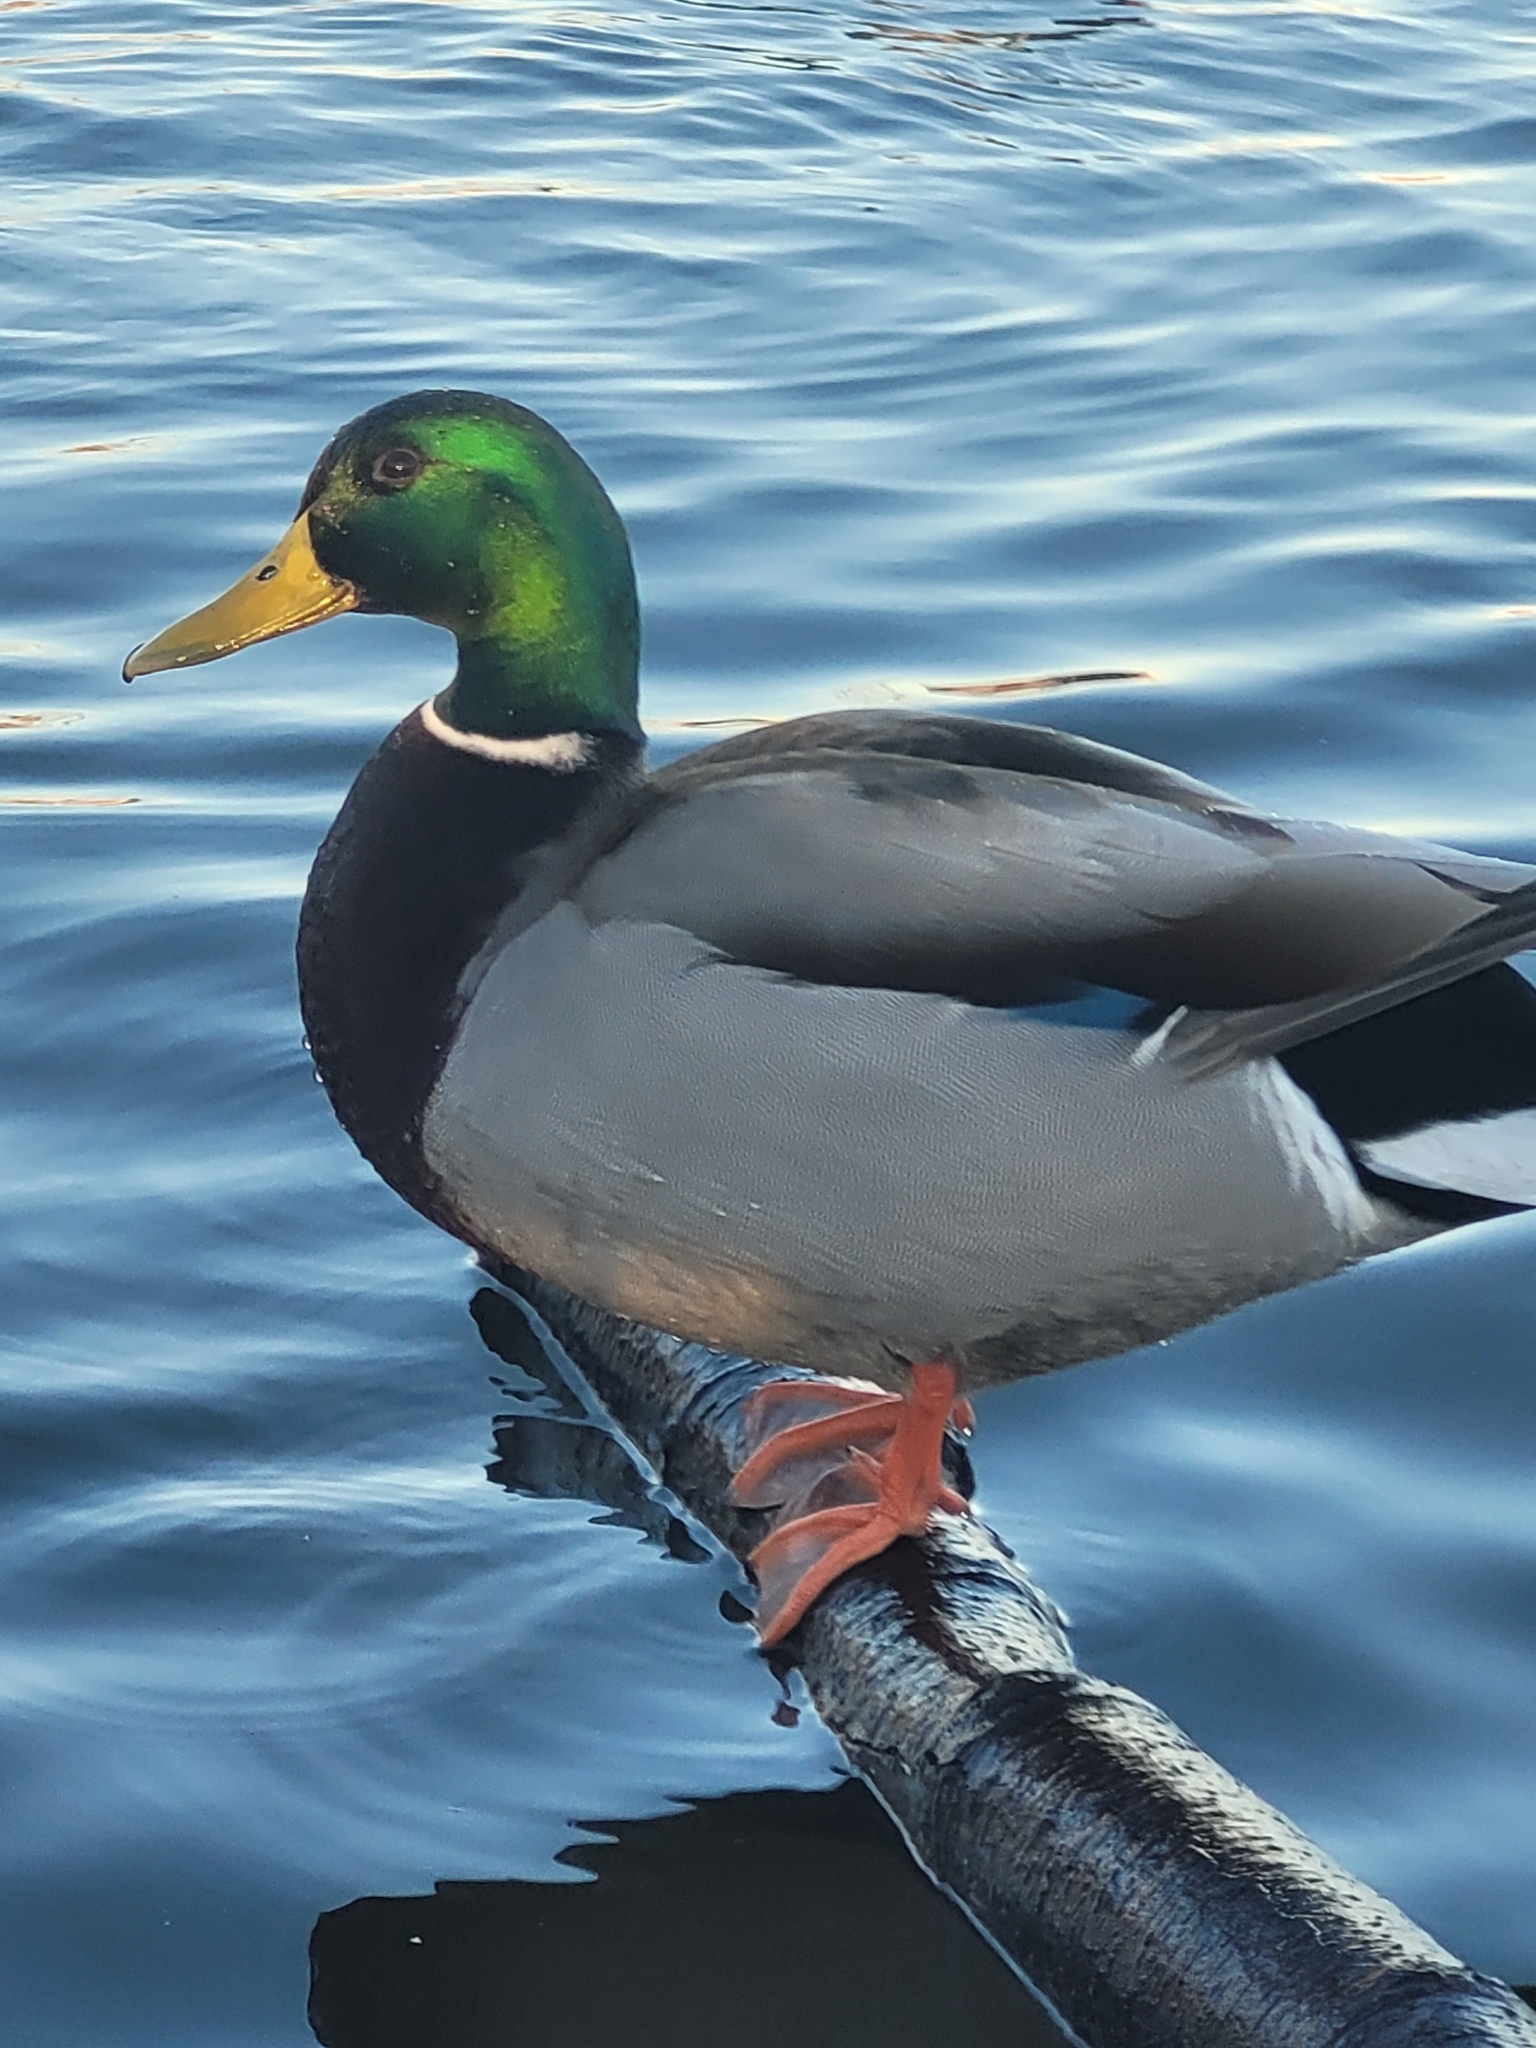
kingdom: Animalia
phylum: Chordata
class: Aves
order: Anseriformes
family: Anatidae
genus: Anas
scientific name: Anas platyrhynchos
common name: Mallard
